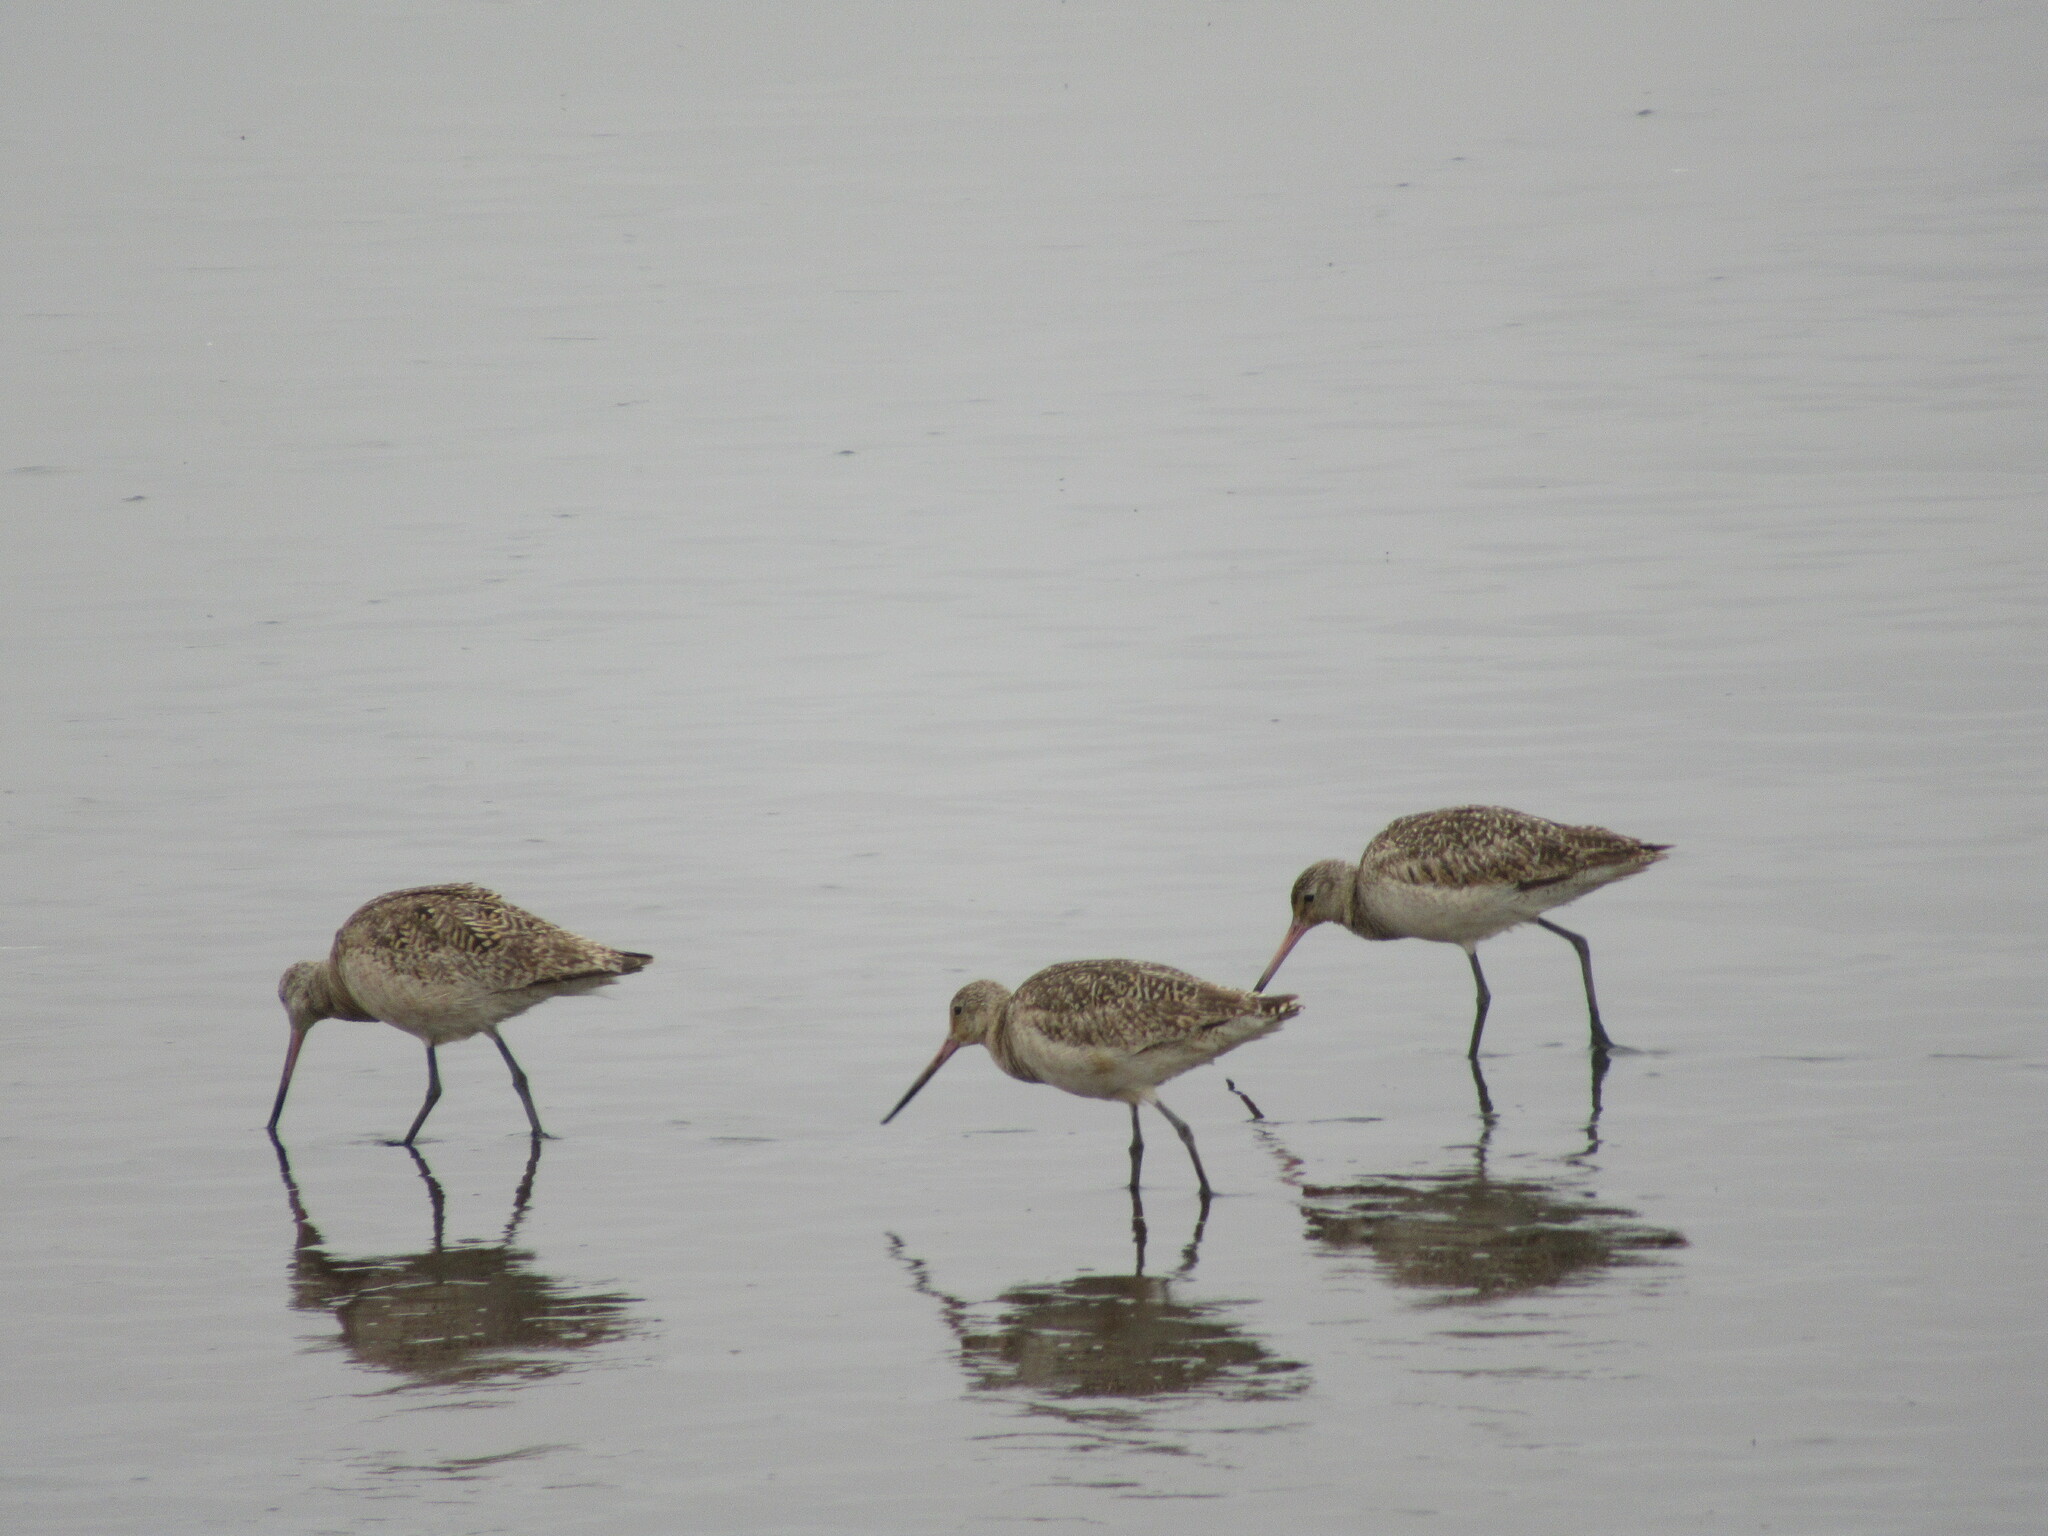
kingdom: Animalia
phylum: Chordata
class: Aves
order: Charadriiformes
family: Scolopacidae
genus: Limosa
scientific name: Limosa fedoa
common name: Marbled godwit
